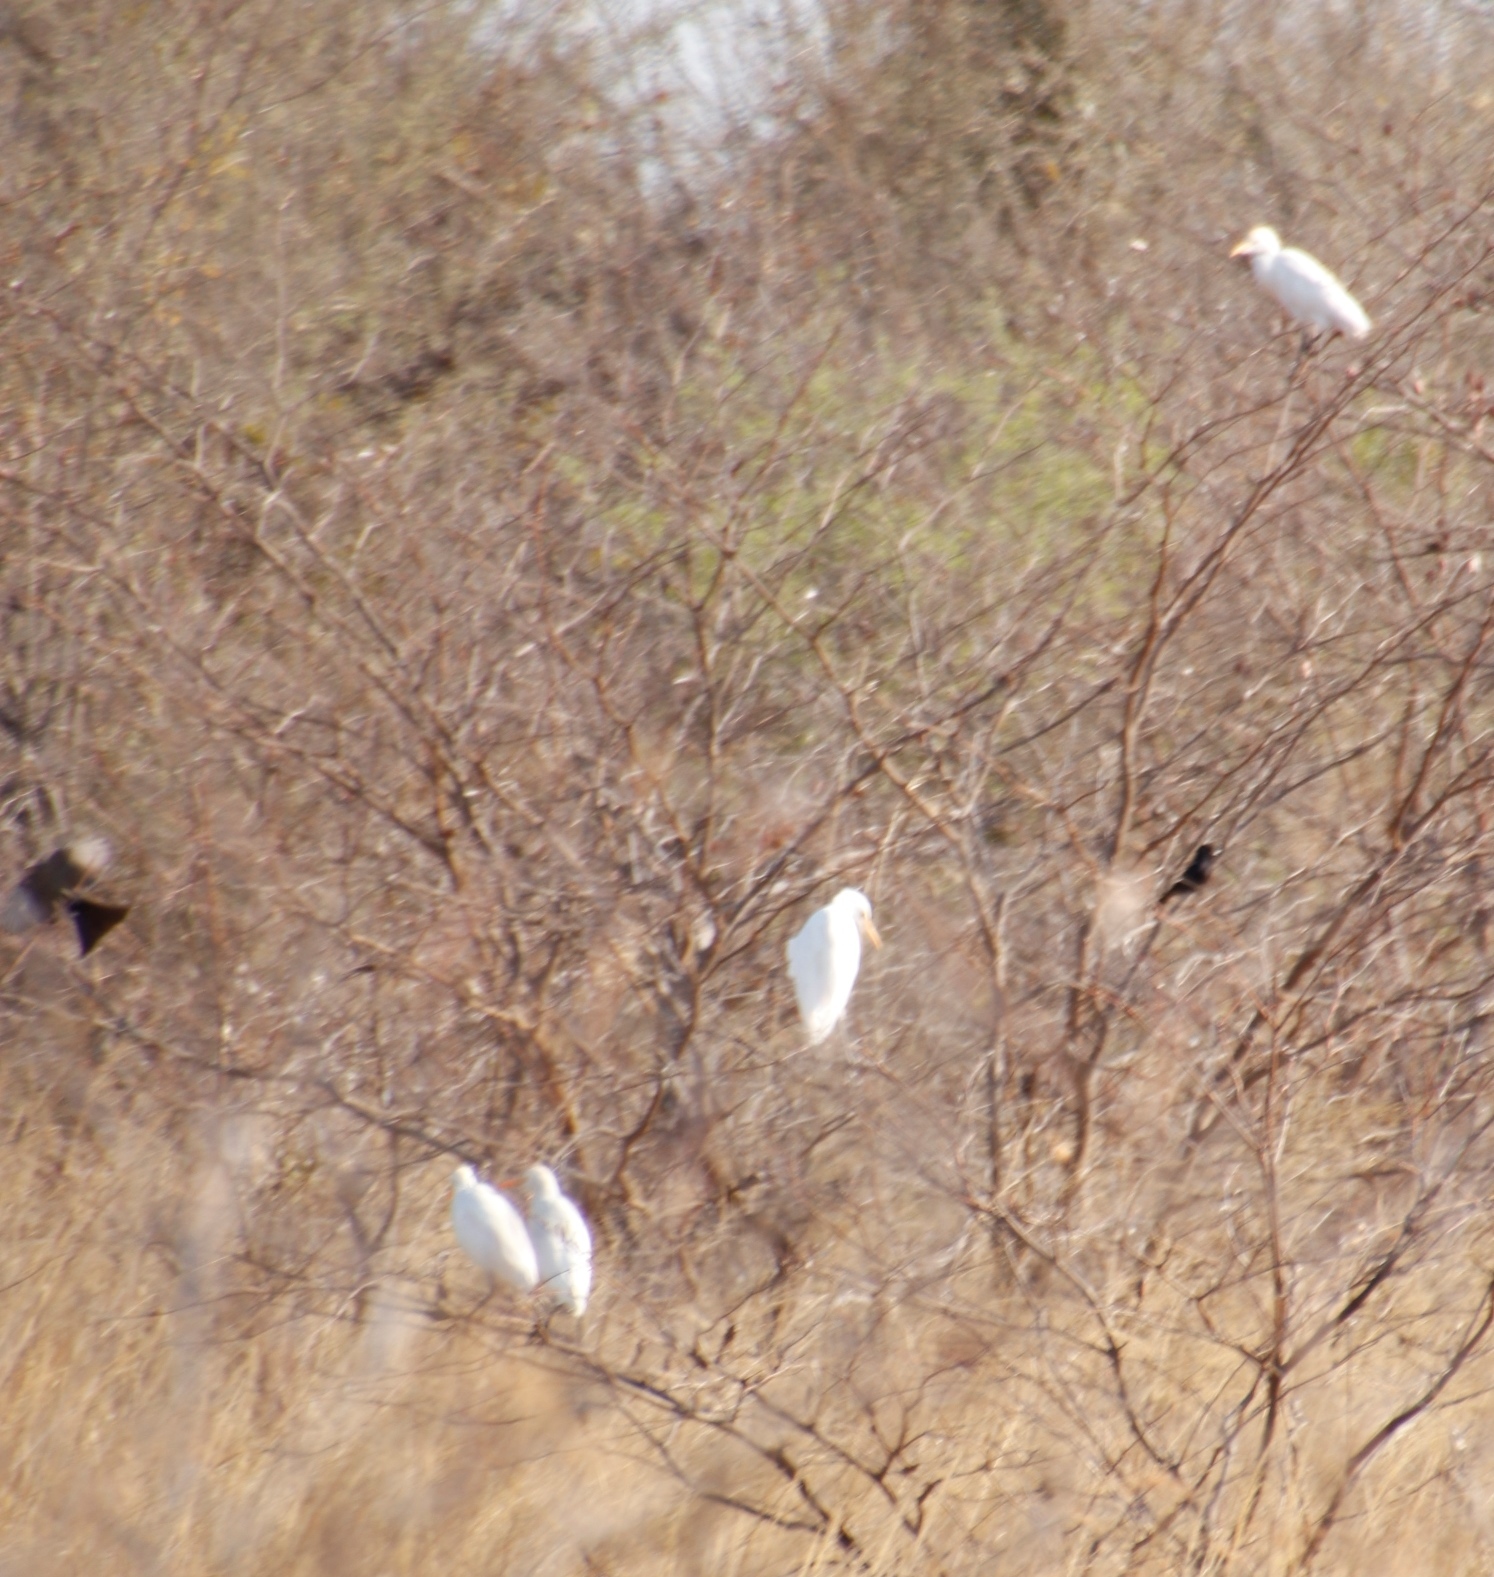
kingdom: Animalia
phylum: Chordata
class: Aves
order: Pelecaniformes
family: Ardeidae
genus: Bubulcus
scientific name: Bubulcus ibis
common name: Cattle egret
